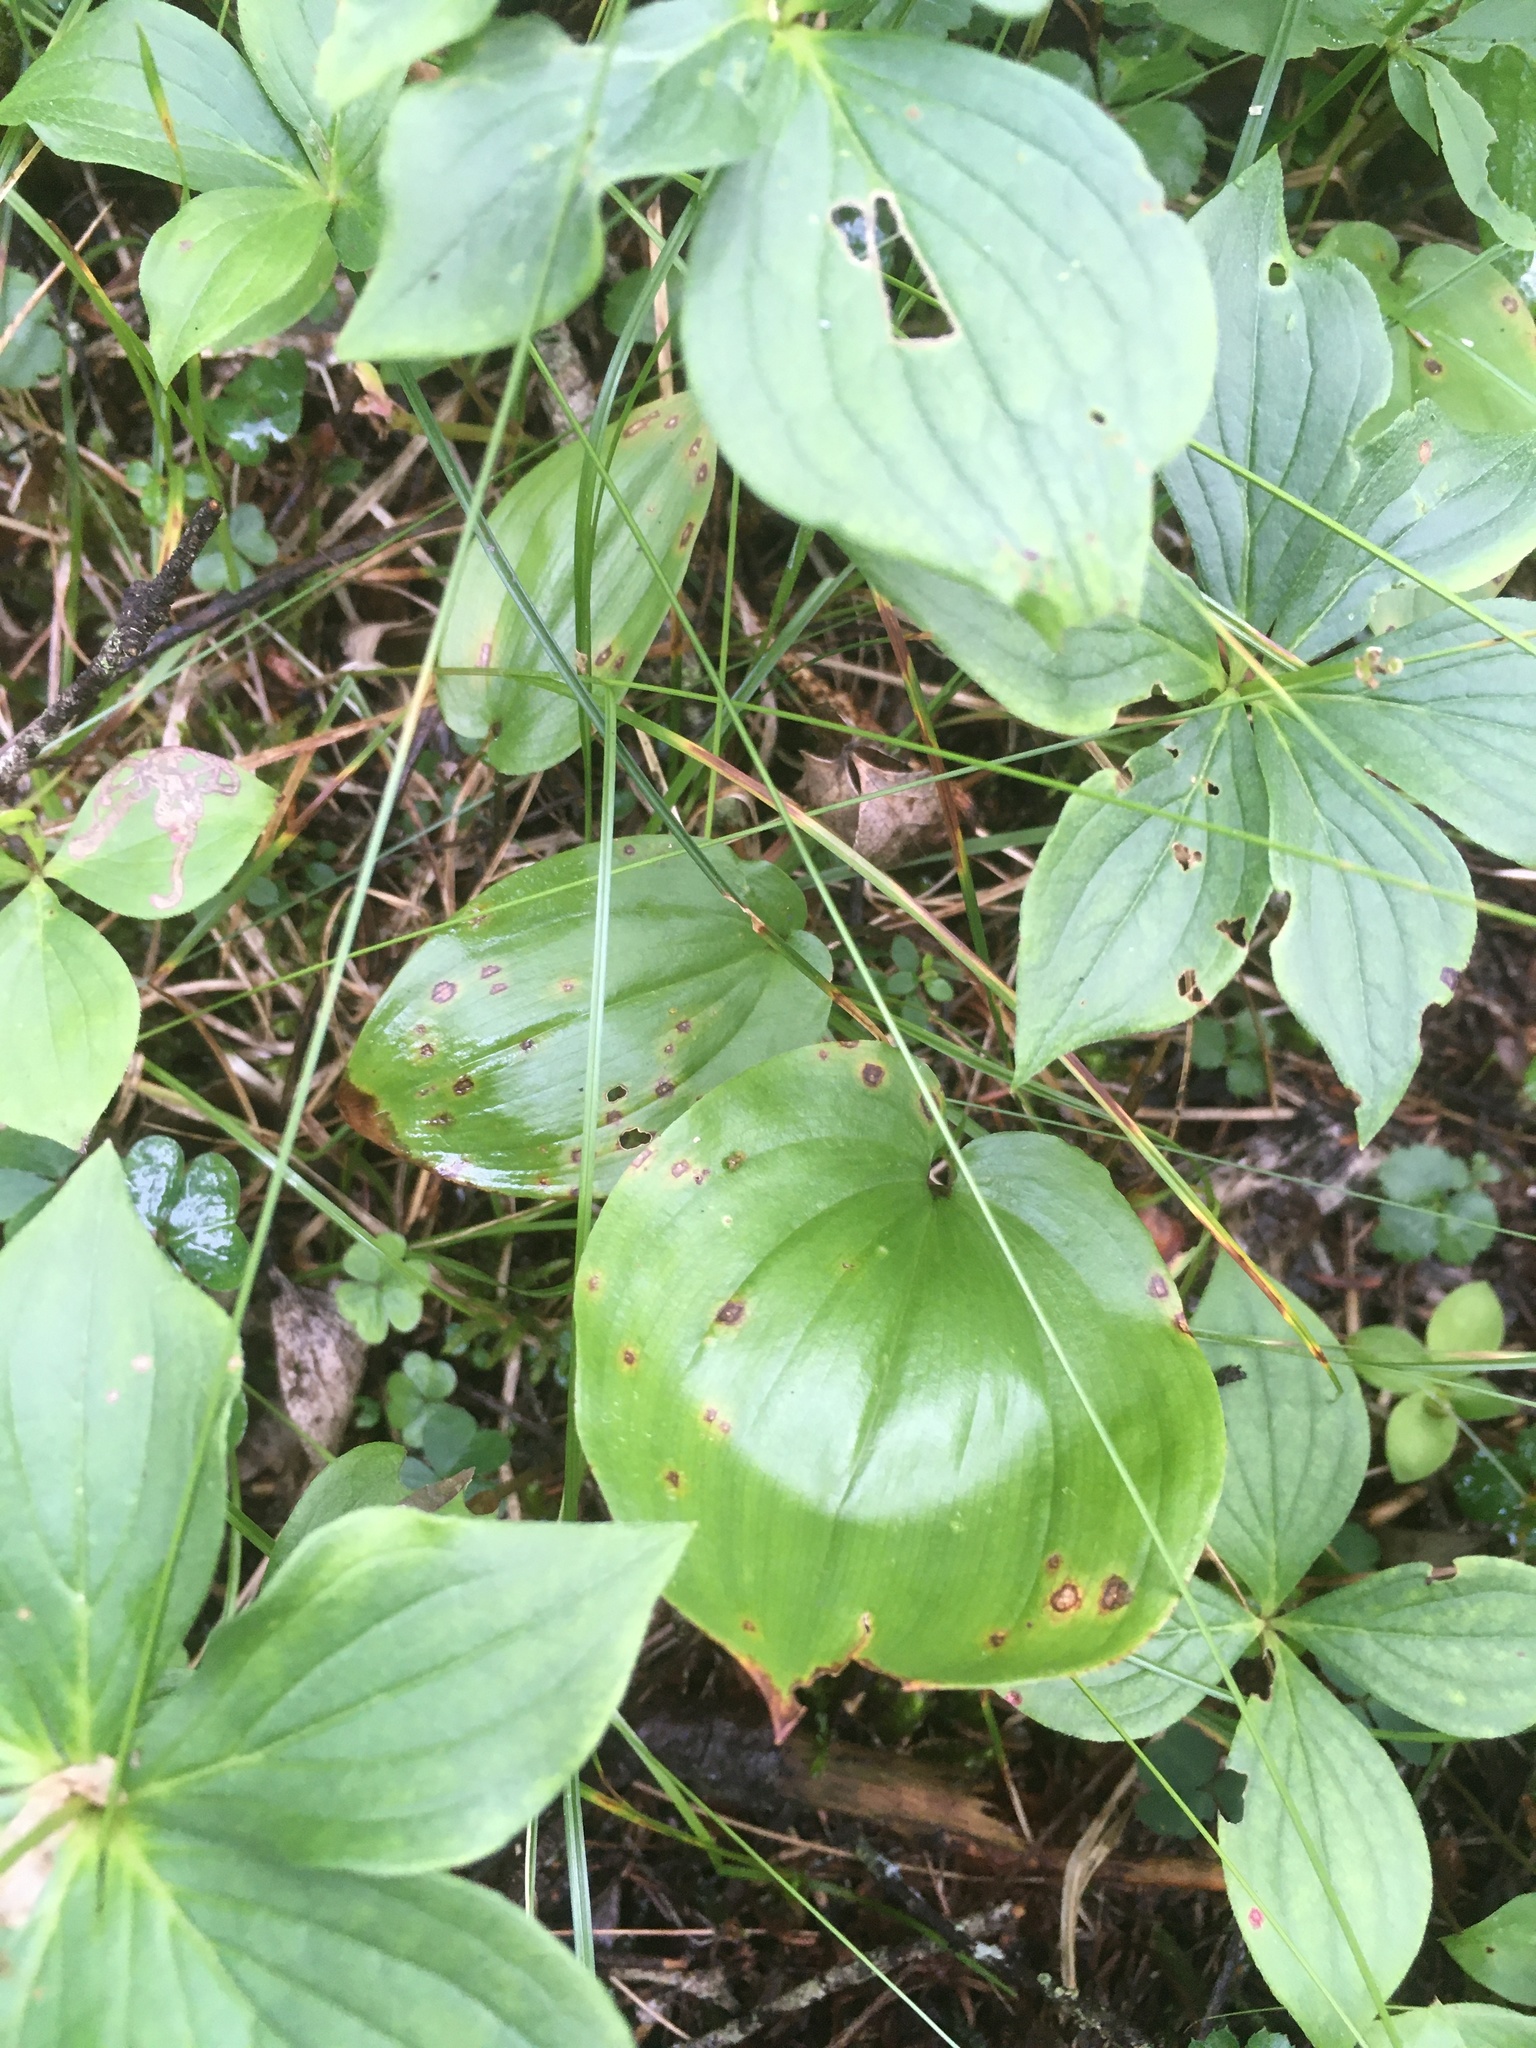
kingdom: Plantae
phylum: Tracheophyta
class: Liliopsida
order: Asparagales
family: Asparagaceae
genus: Maianthemum
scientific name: Maianthemum canadense
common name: False lily-of-the-valley
